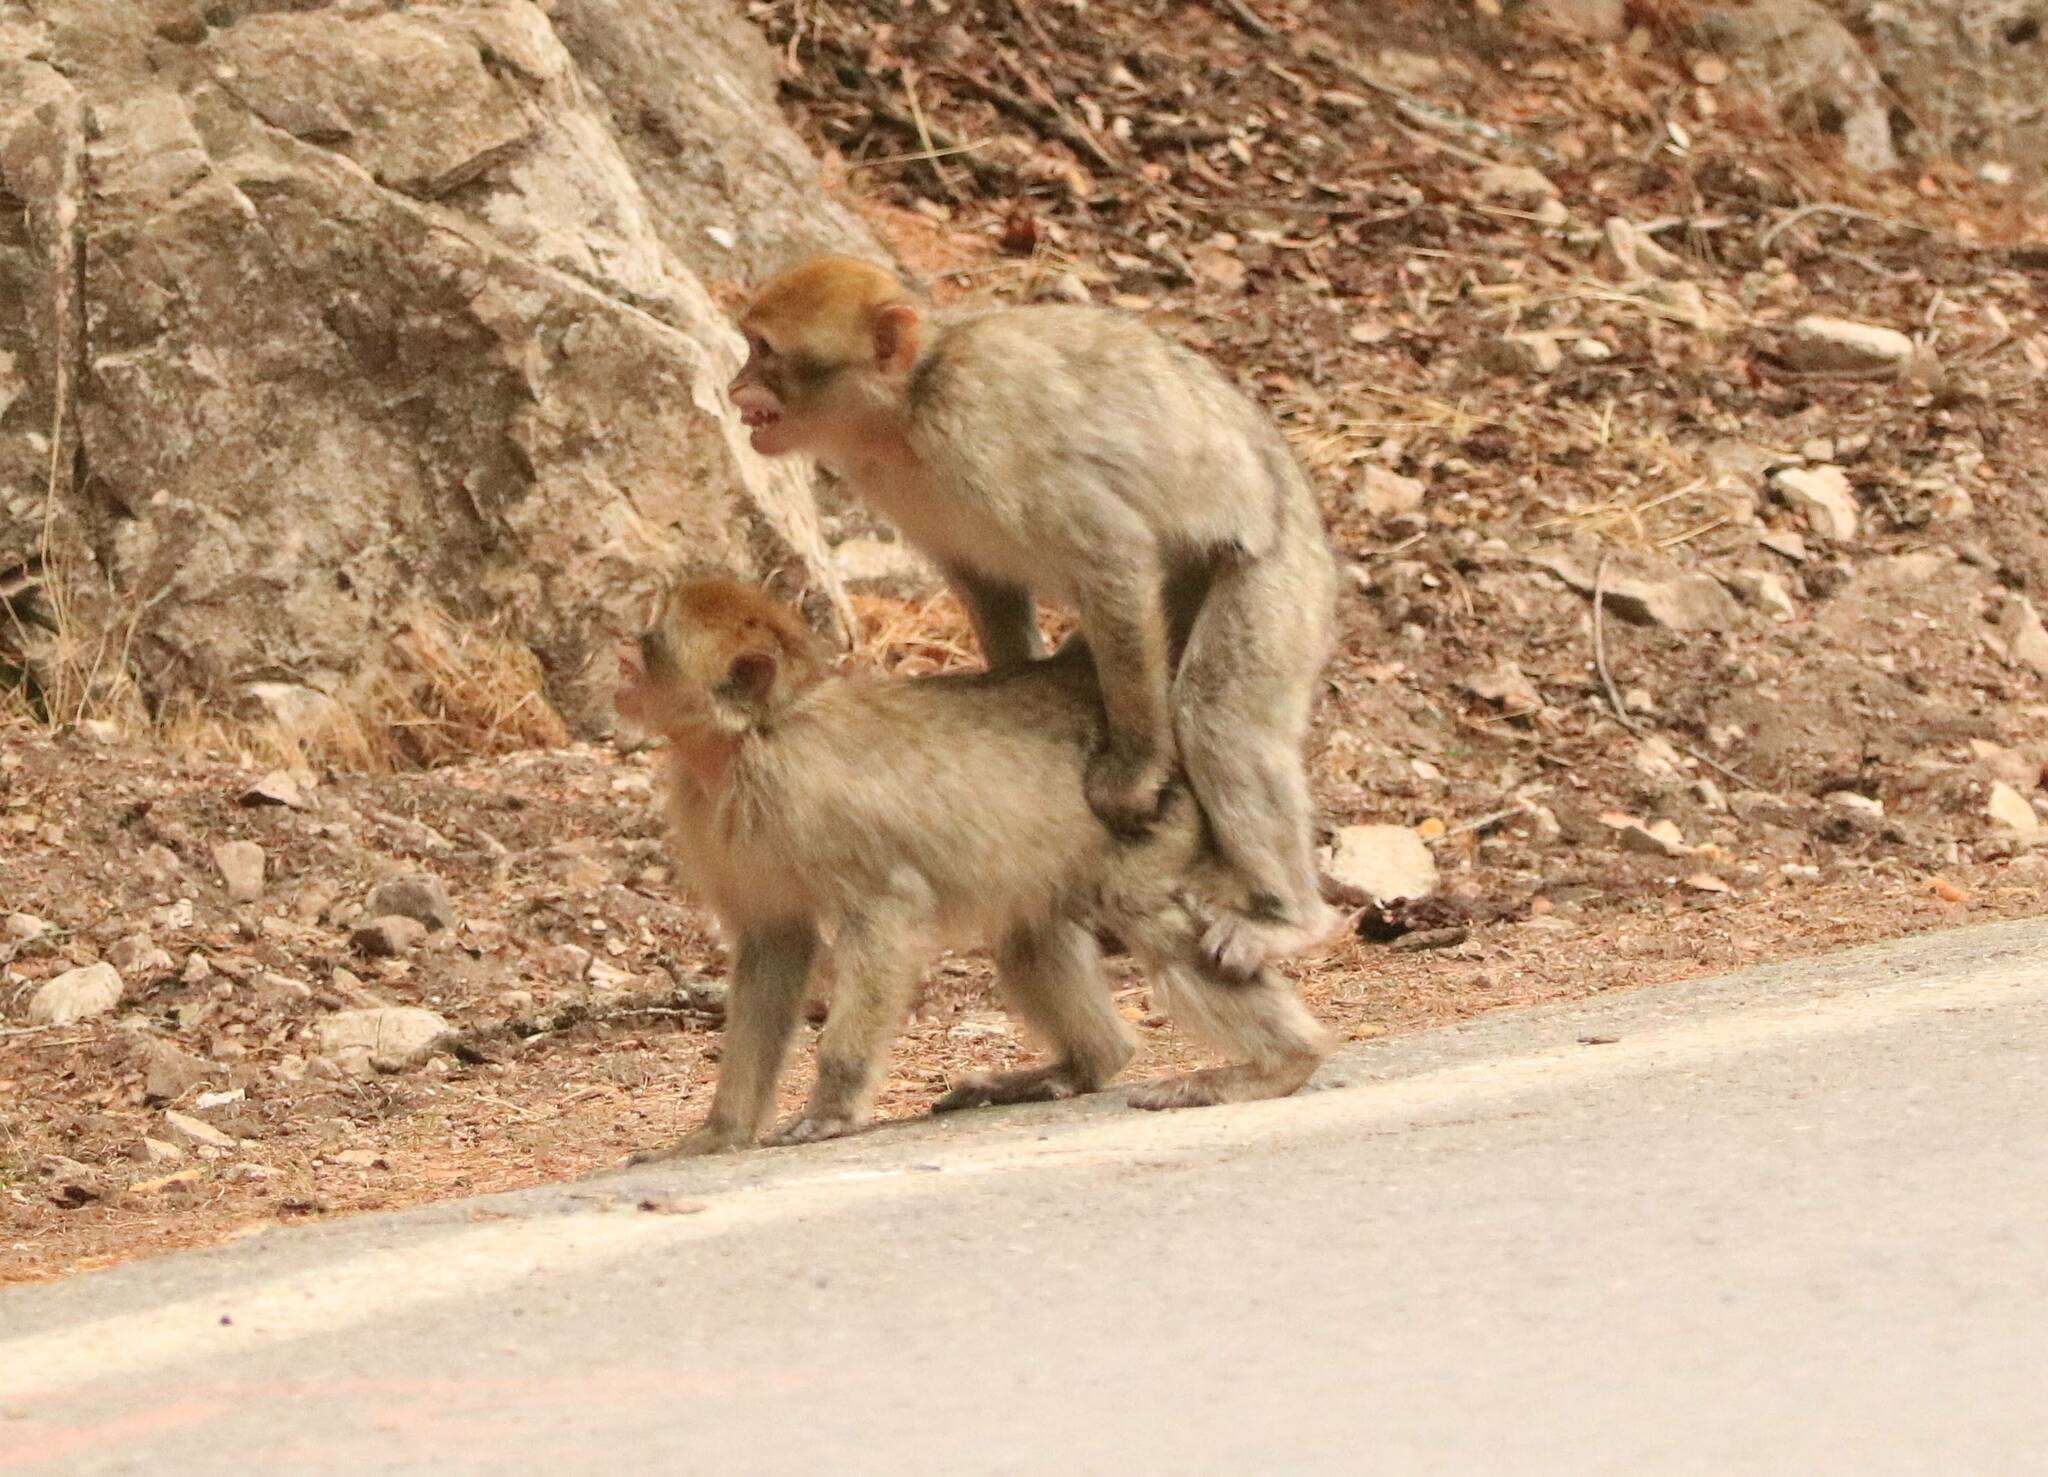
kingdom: Animalia
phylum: Chordata
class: Mammalia
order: Primates
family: Cercopithecidae
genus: Macaca
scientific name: Macaca sylvanus
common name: Barbary macaque
